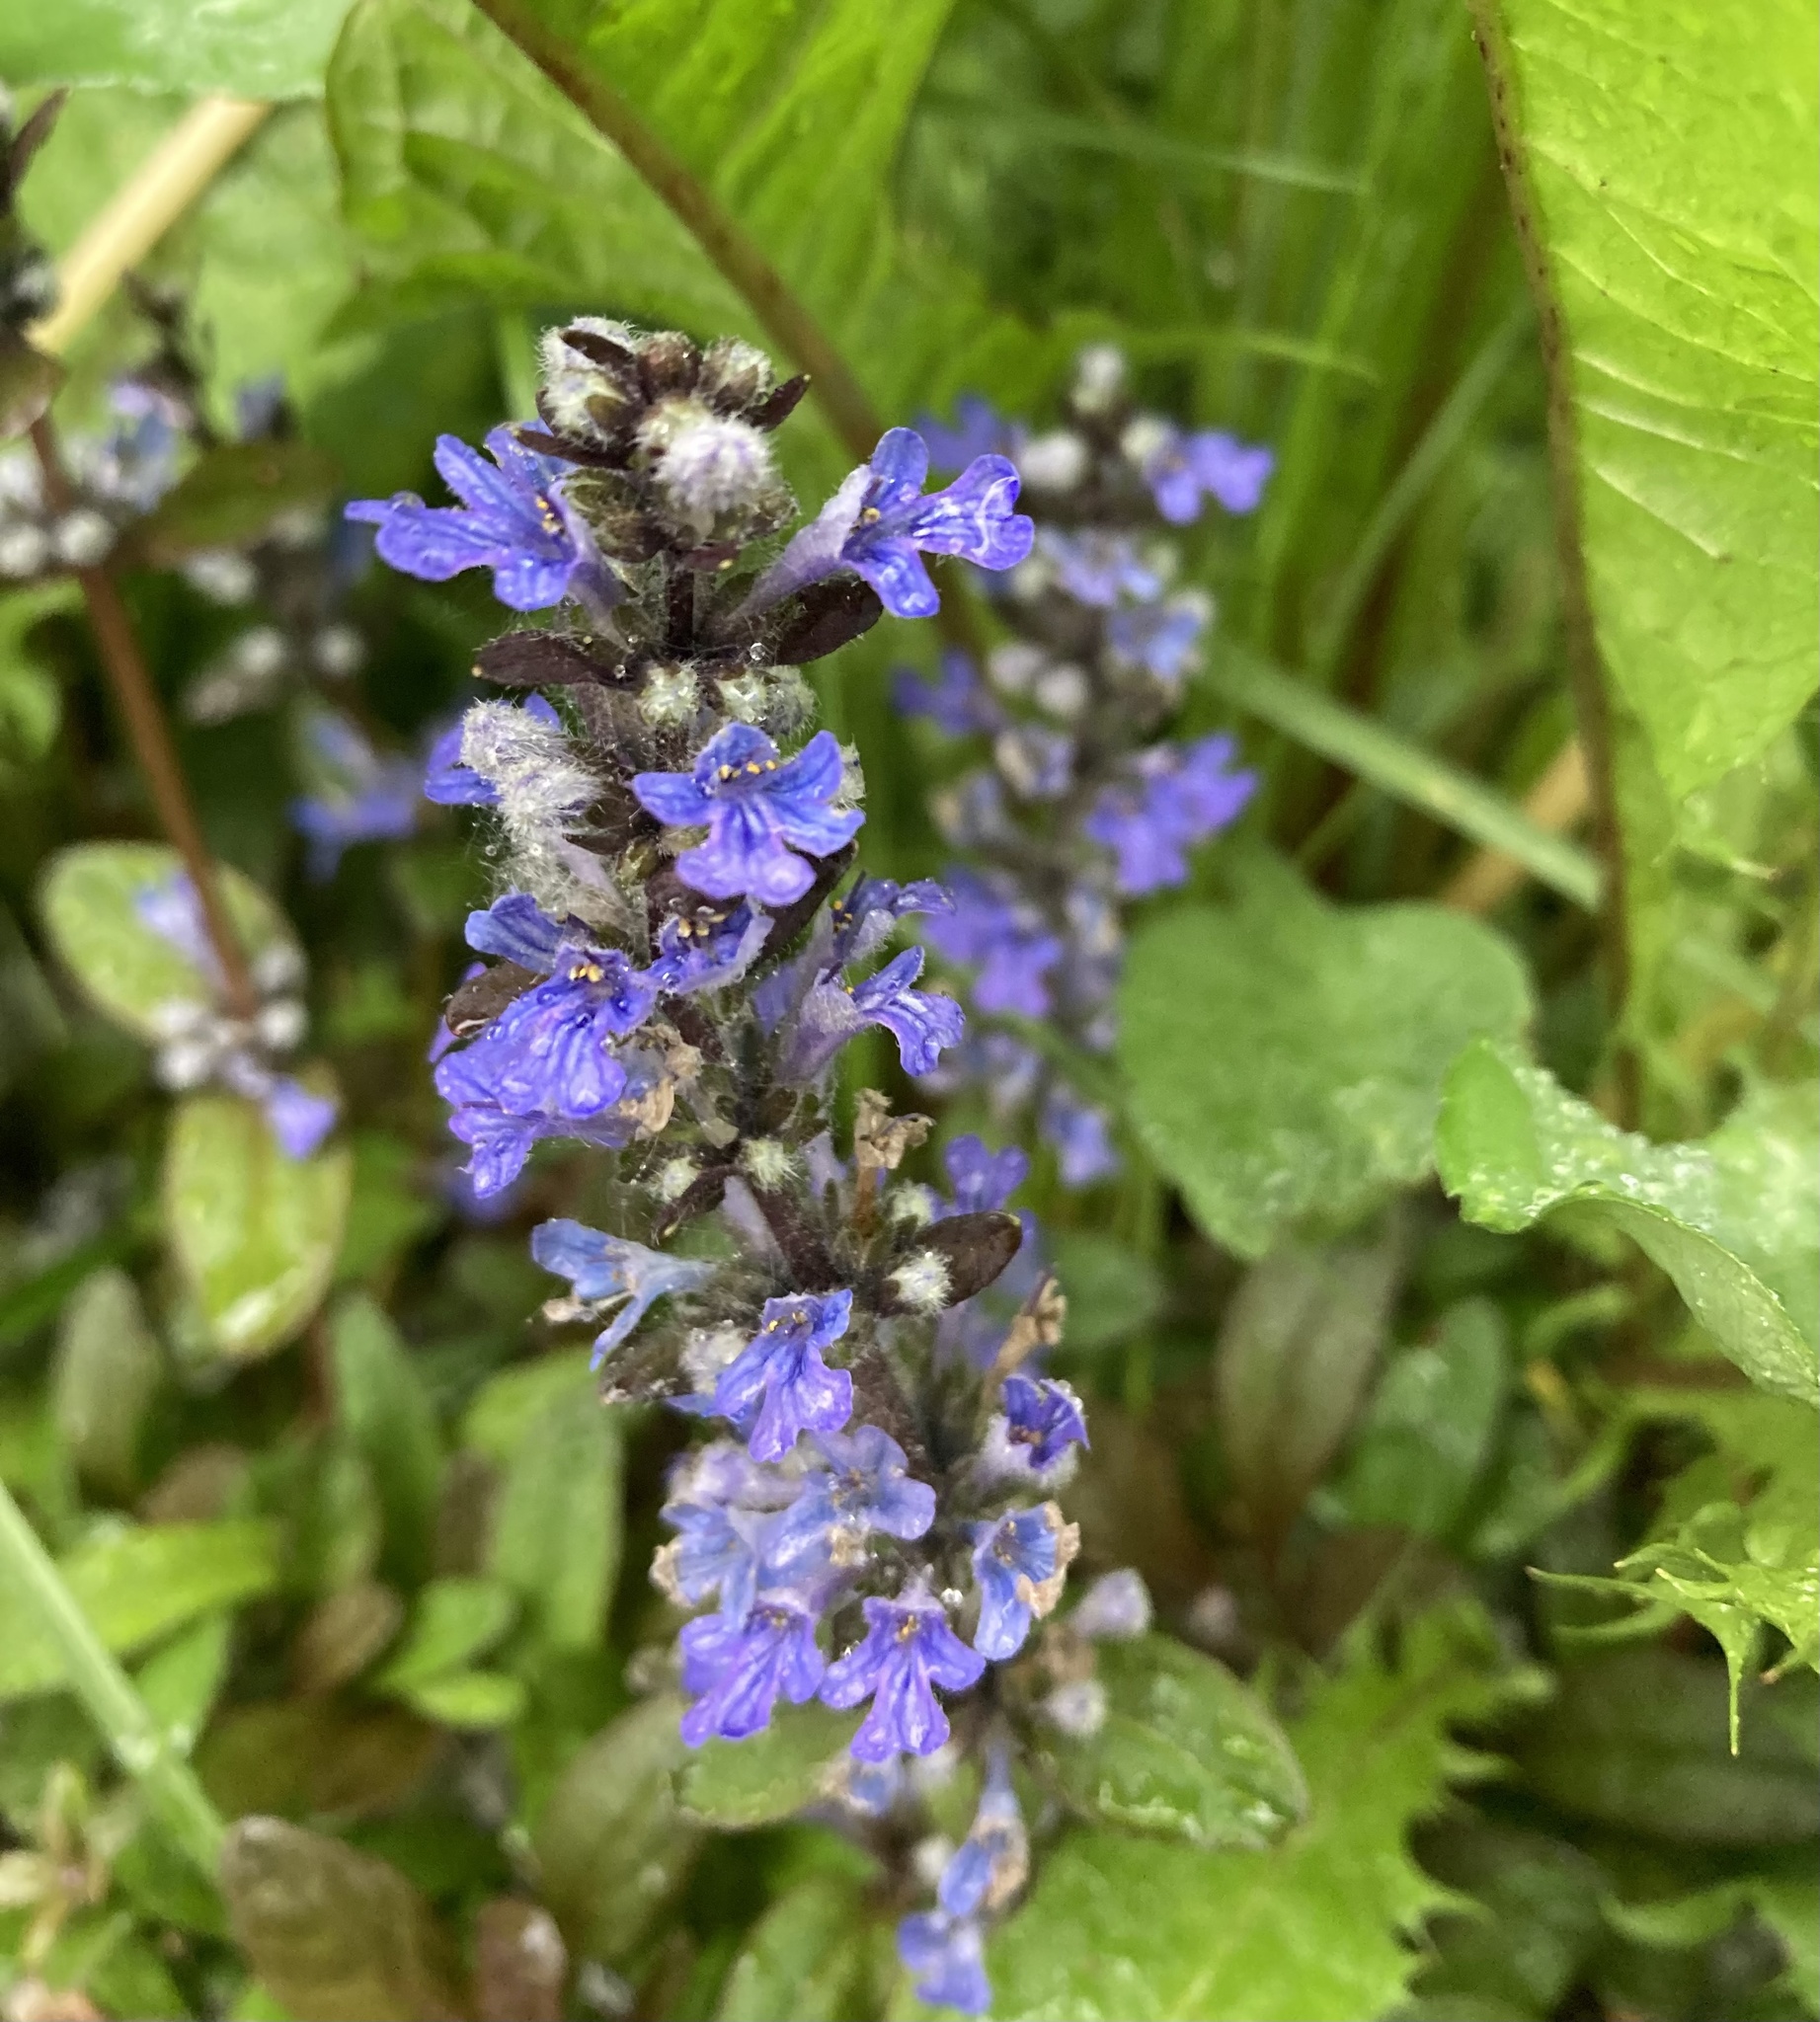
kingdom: Plantae
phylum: Tracheophyta
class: Magnoliopsida
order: Lamiales
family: Lamiaceae
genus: Ajuga
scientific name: Ajuga reptans
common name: Bugle
